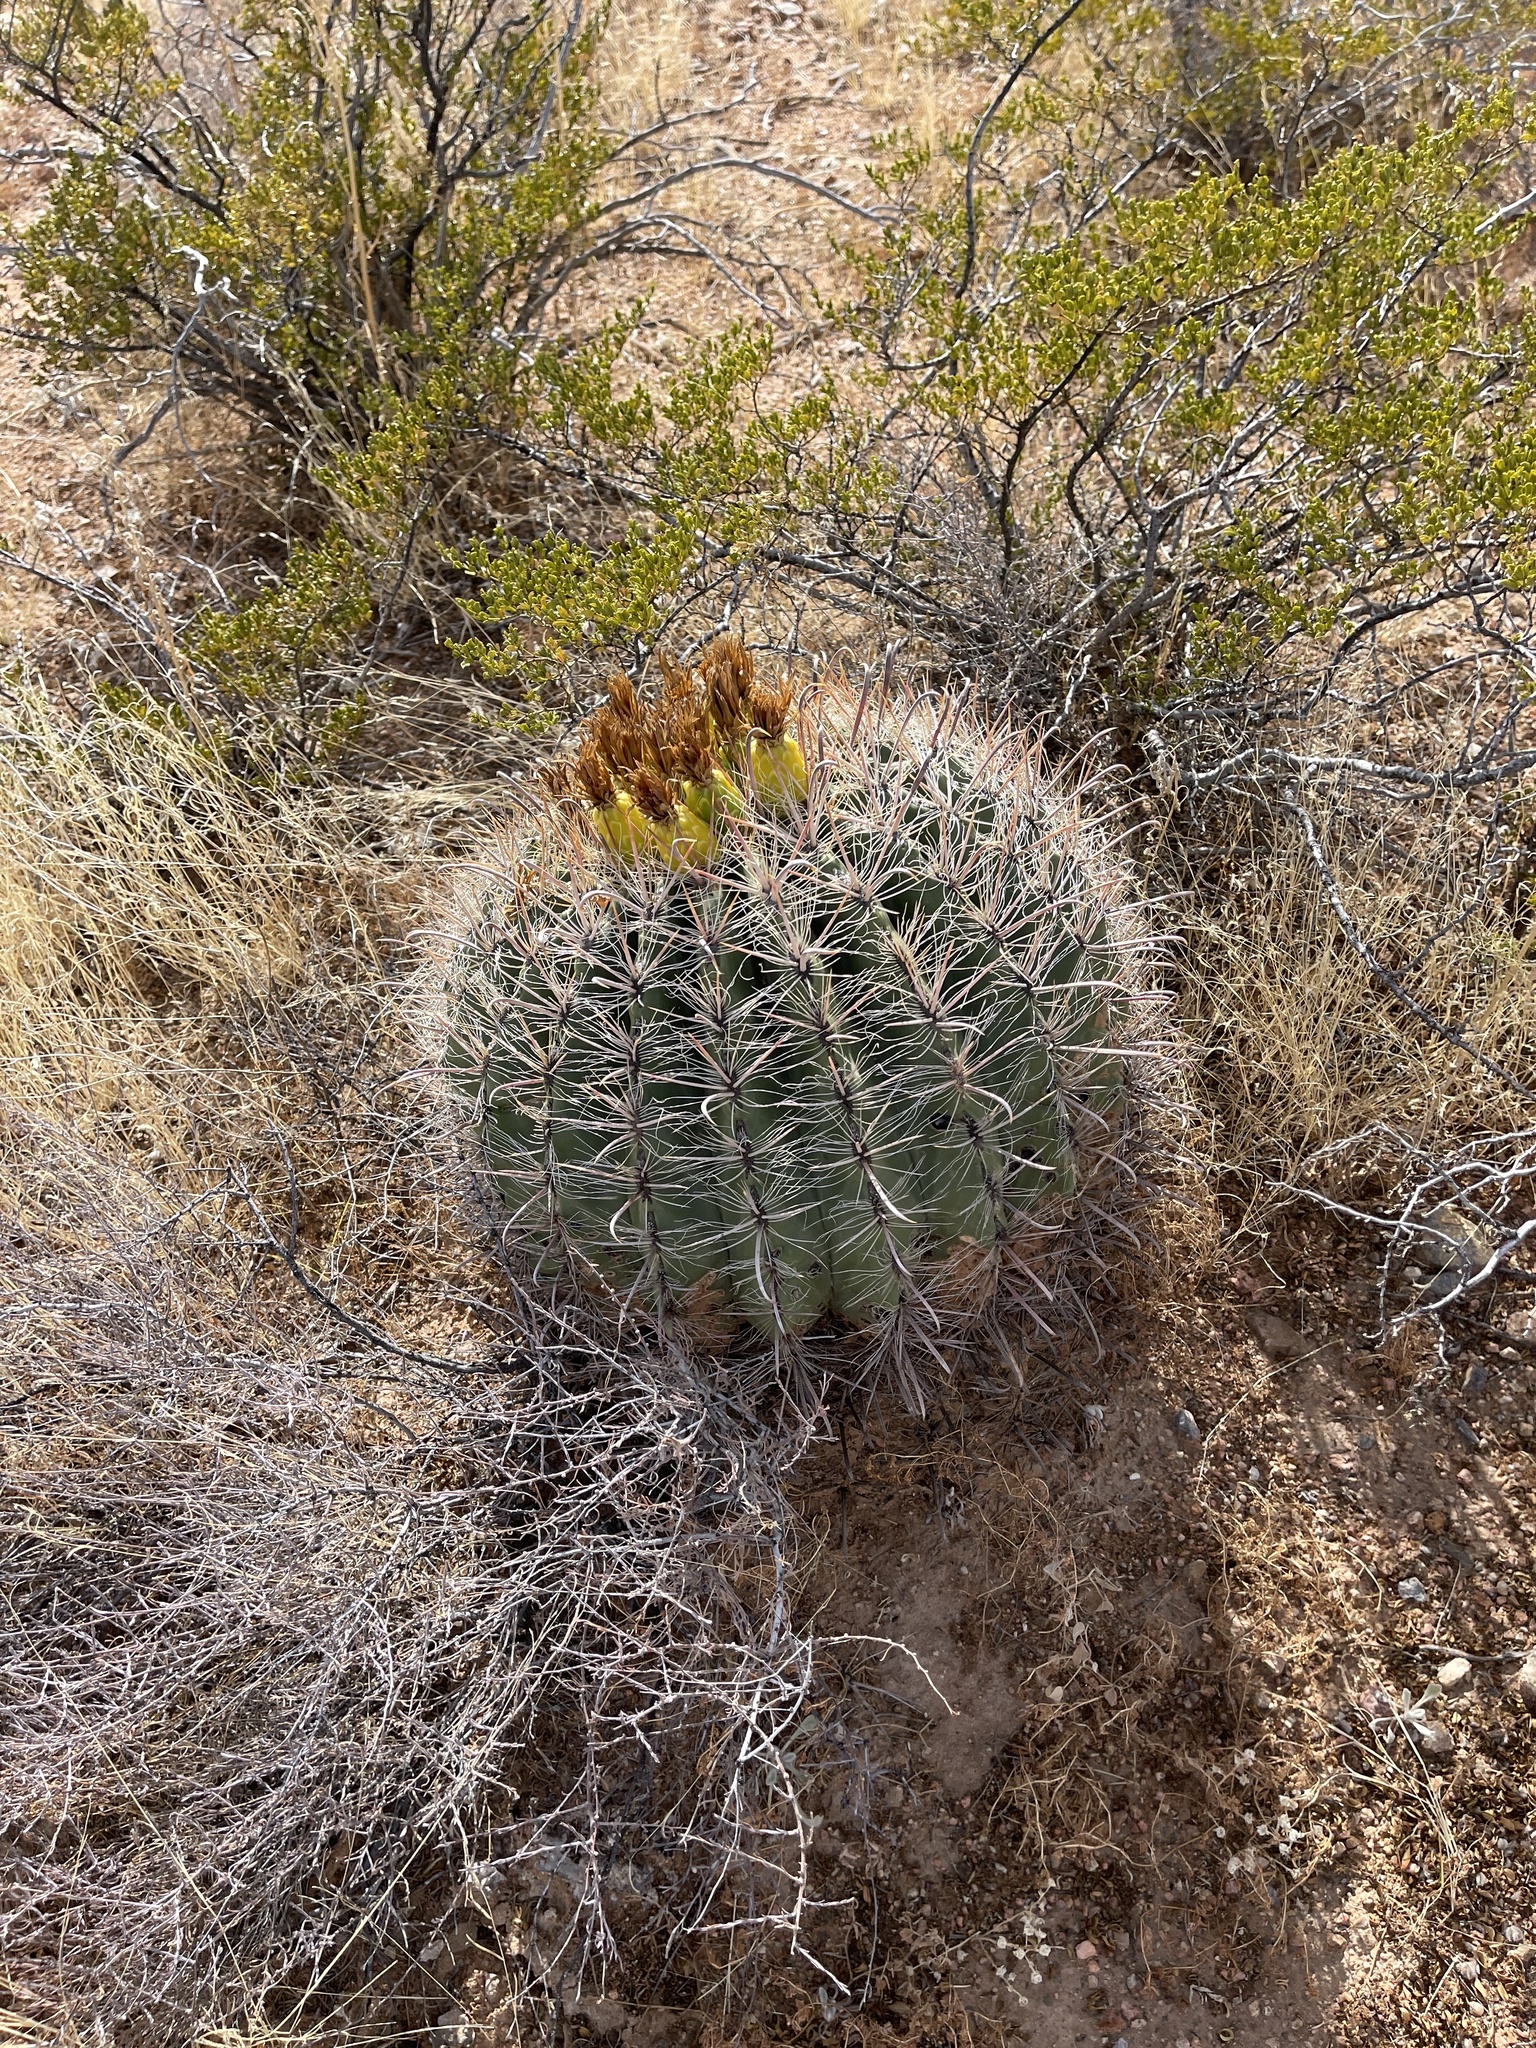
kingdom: Plantae
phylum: Tracheophyta
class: Magnoliopsida
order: Caryophyllales
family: Cactaceae
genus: Ferocactus
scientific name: Ferocactus wislizeni
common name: Candy barrel cactus
